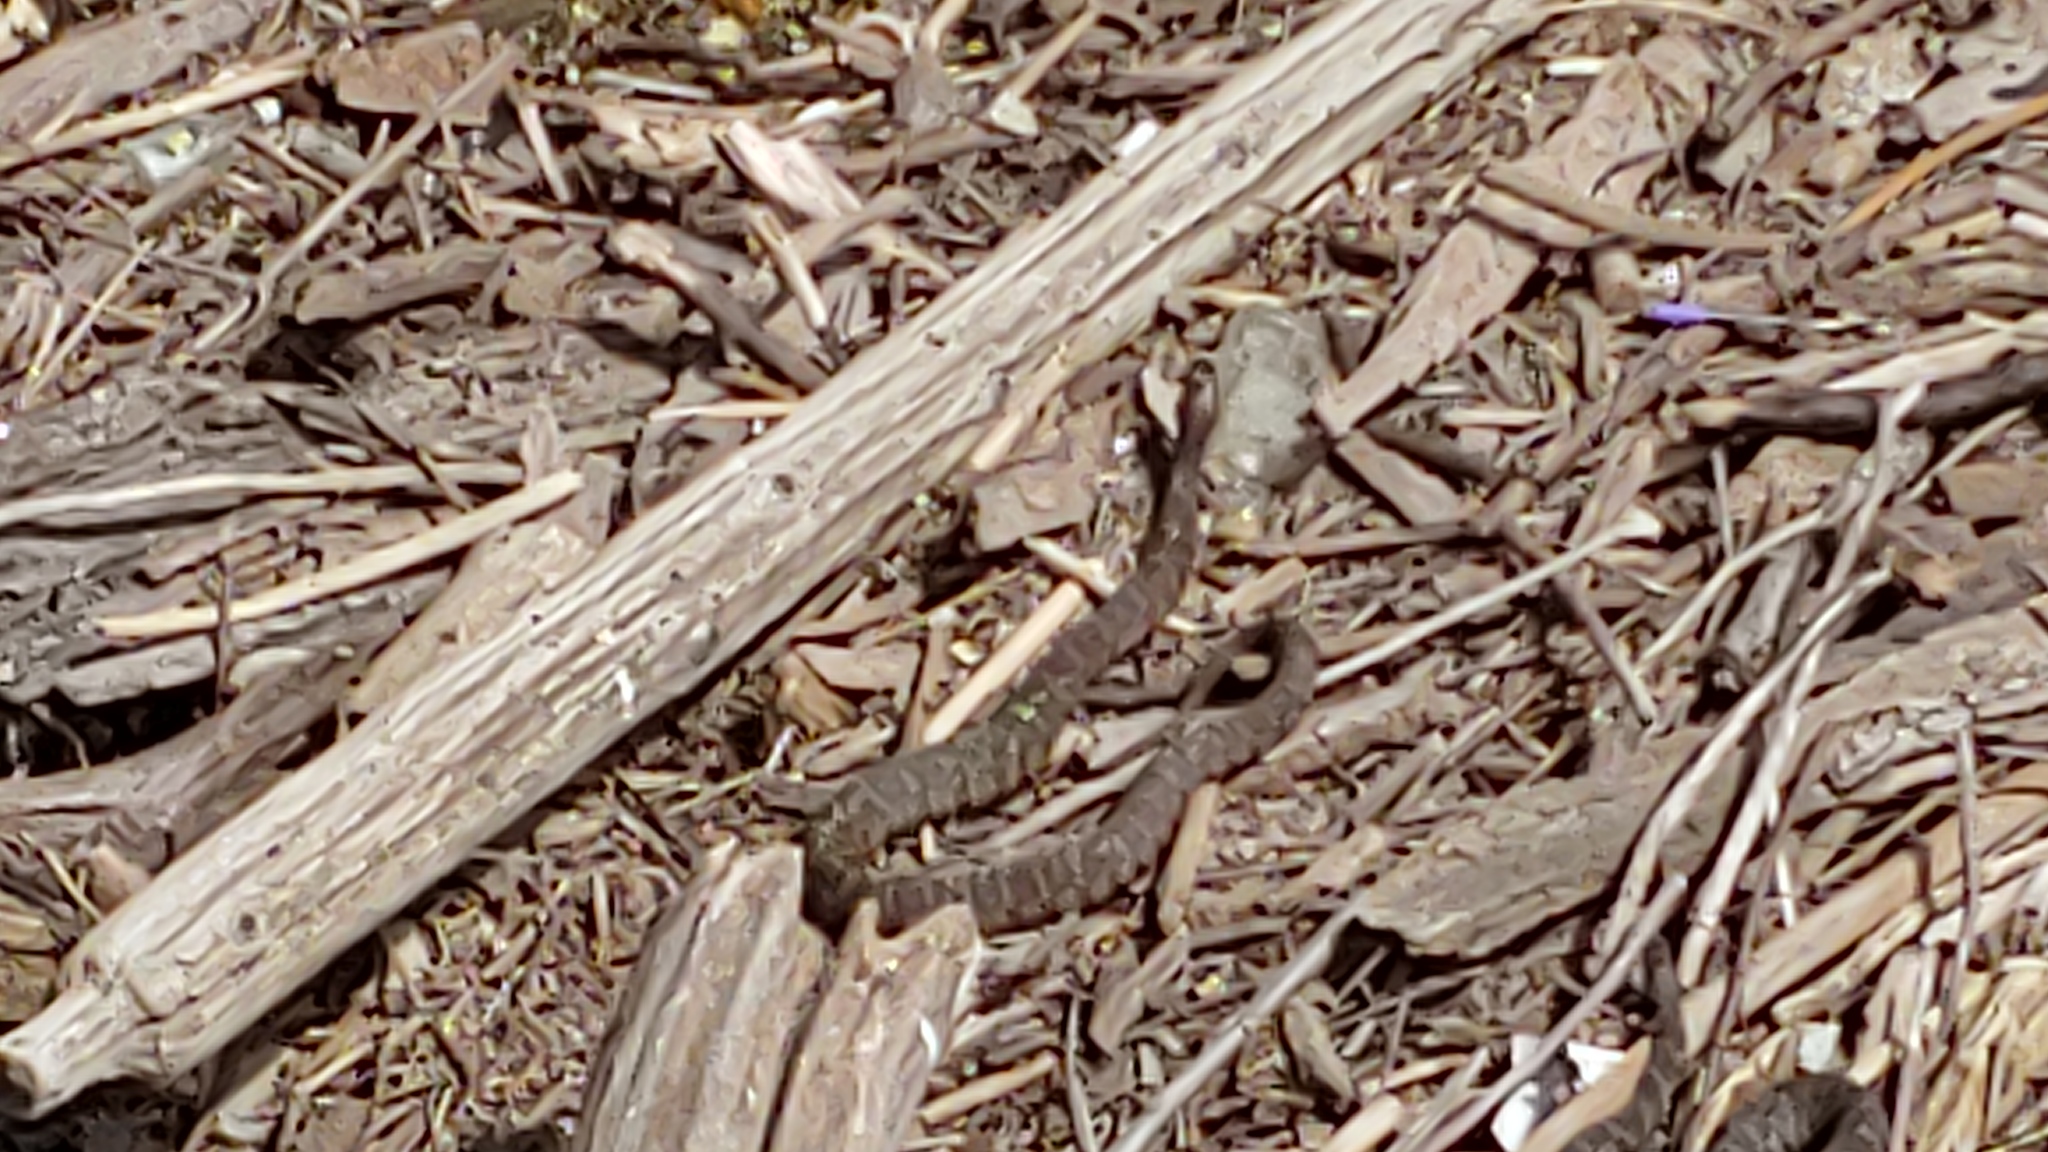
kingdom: Animalia
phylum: Chordata
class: Squamata
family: Colubridae
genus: Nerodia
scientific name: Nerodia sipedon
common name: Northern water snake
